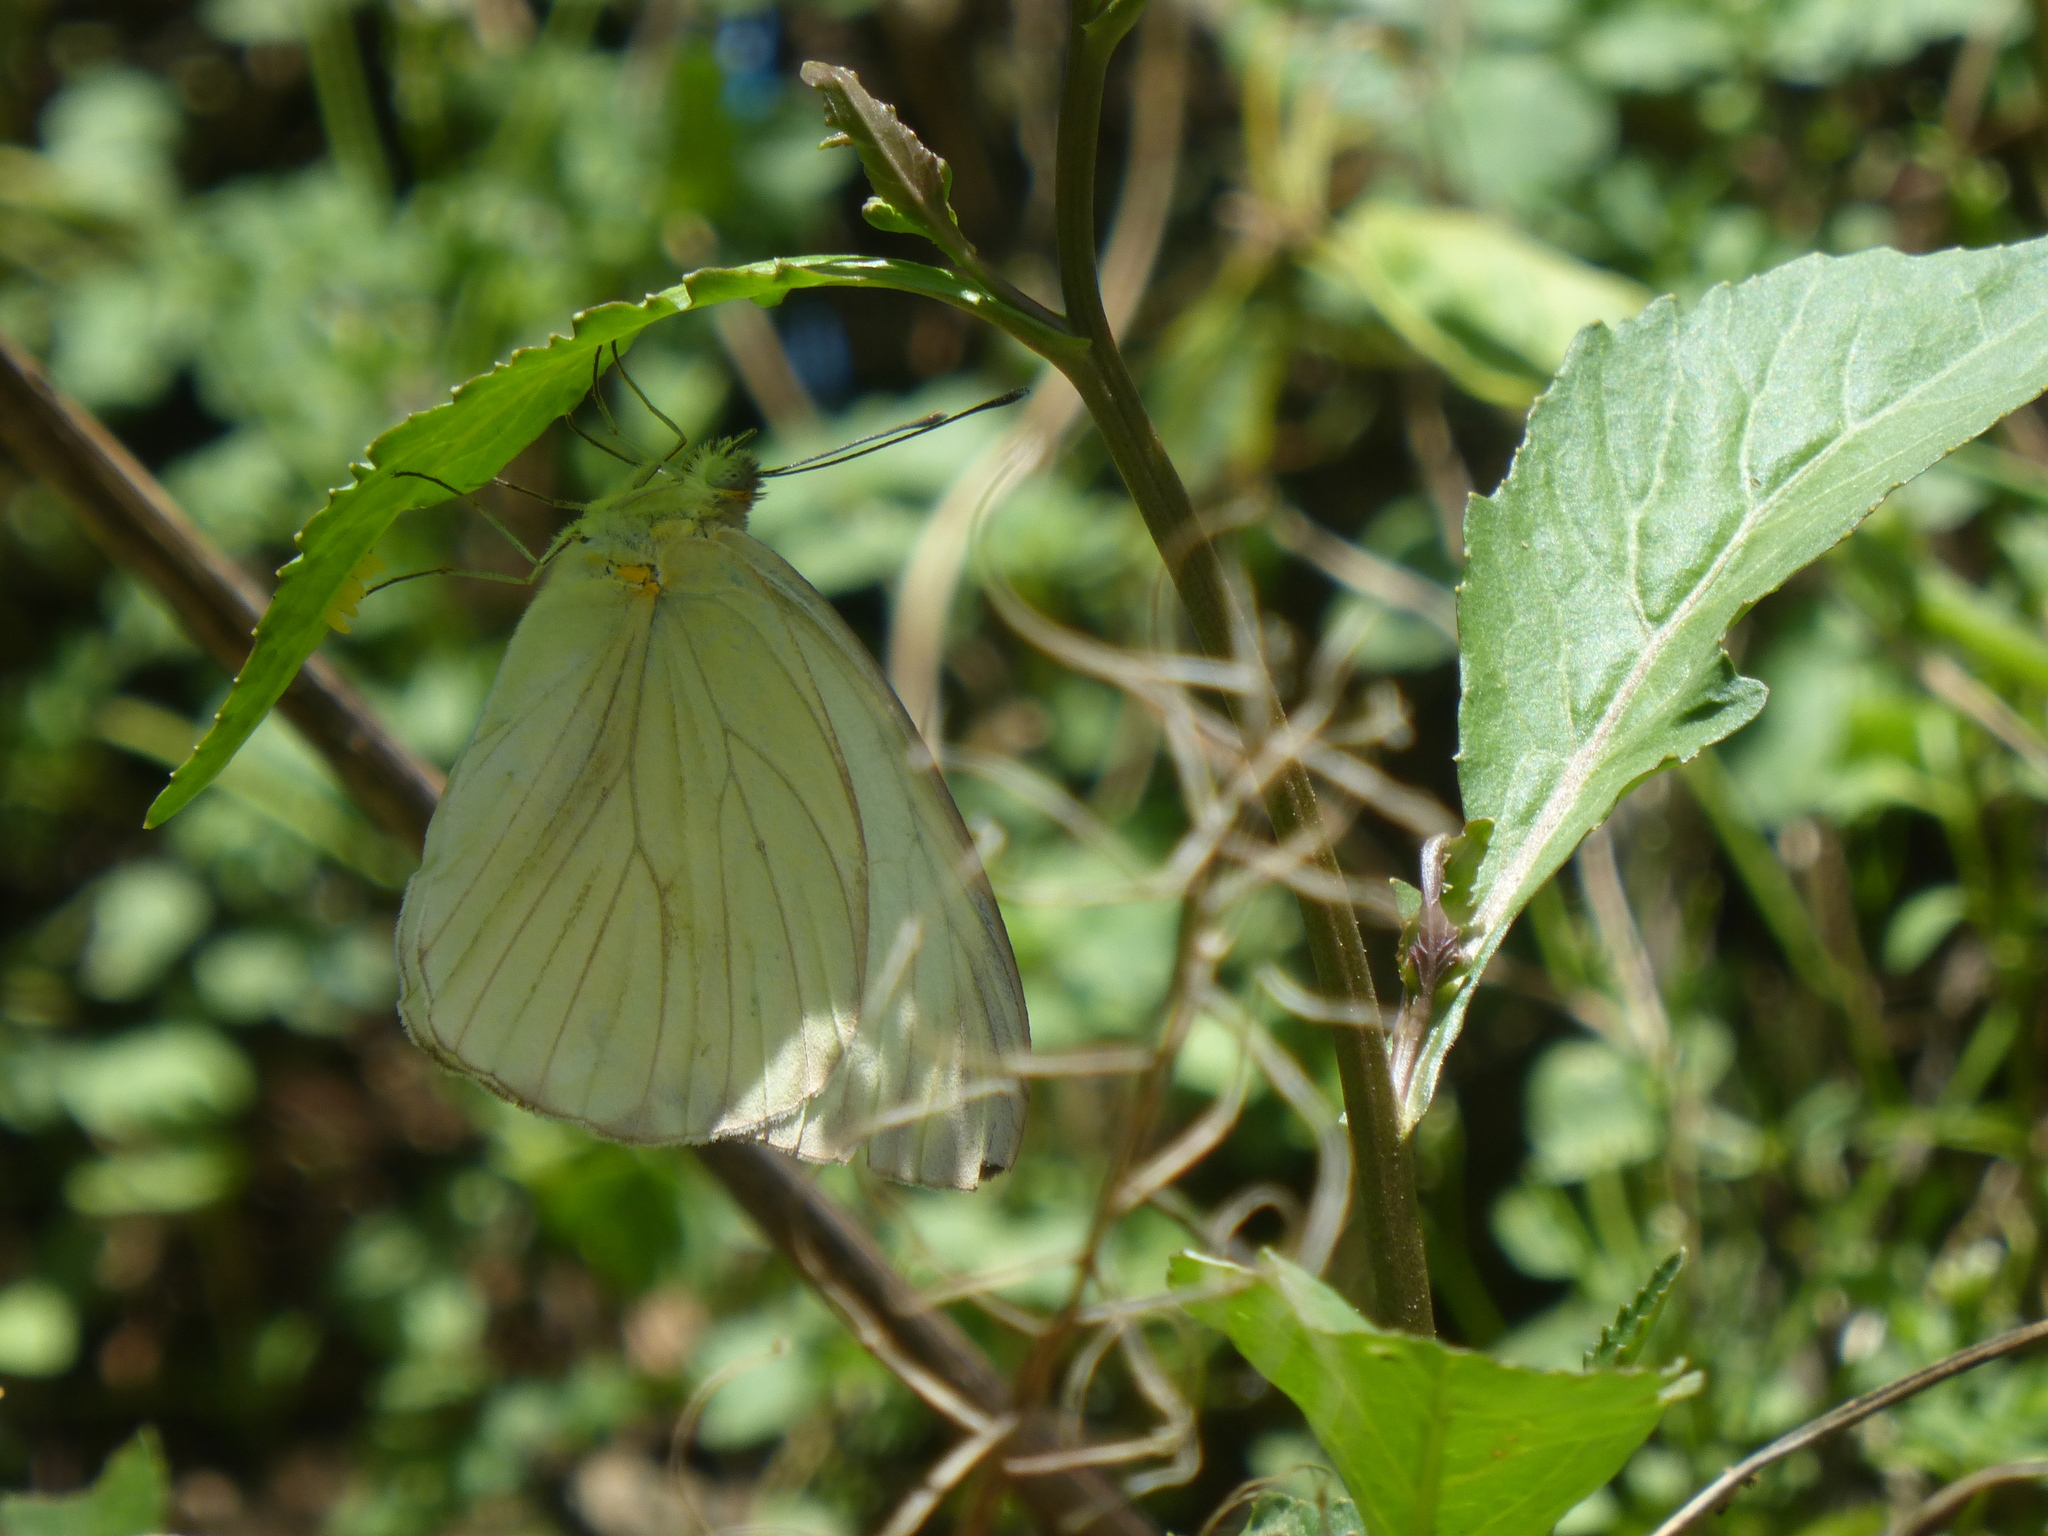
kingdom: Animalia
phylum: Arthropoda
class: Insecta
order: Lepidoptera
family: Pieridae
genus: Ascia
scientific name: Ascia monuste
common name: Great southern white
